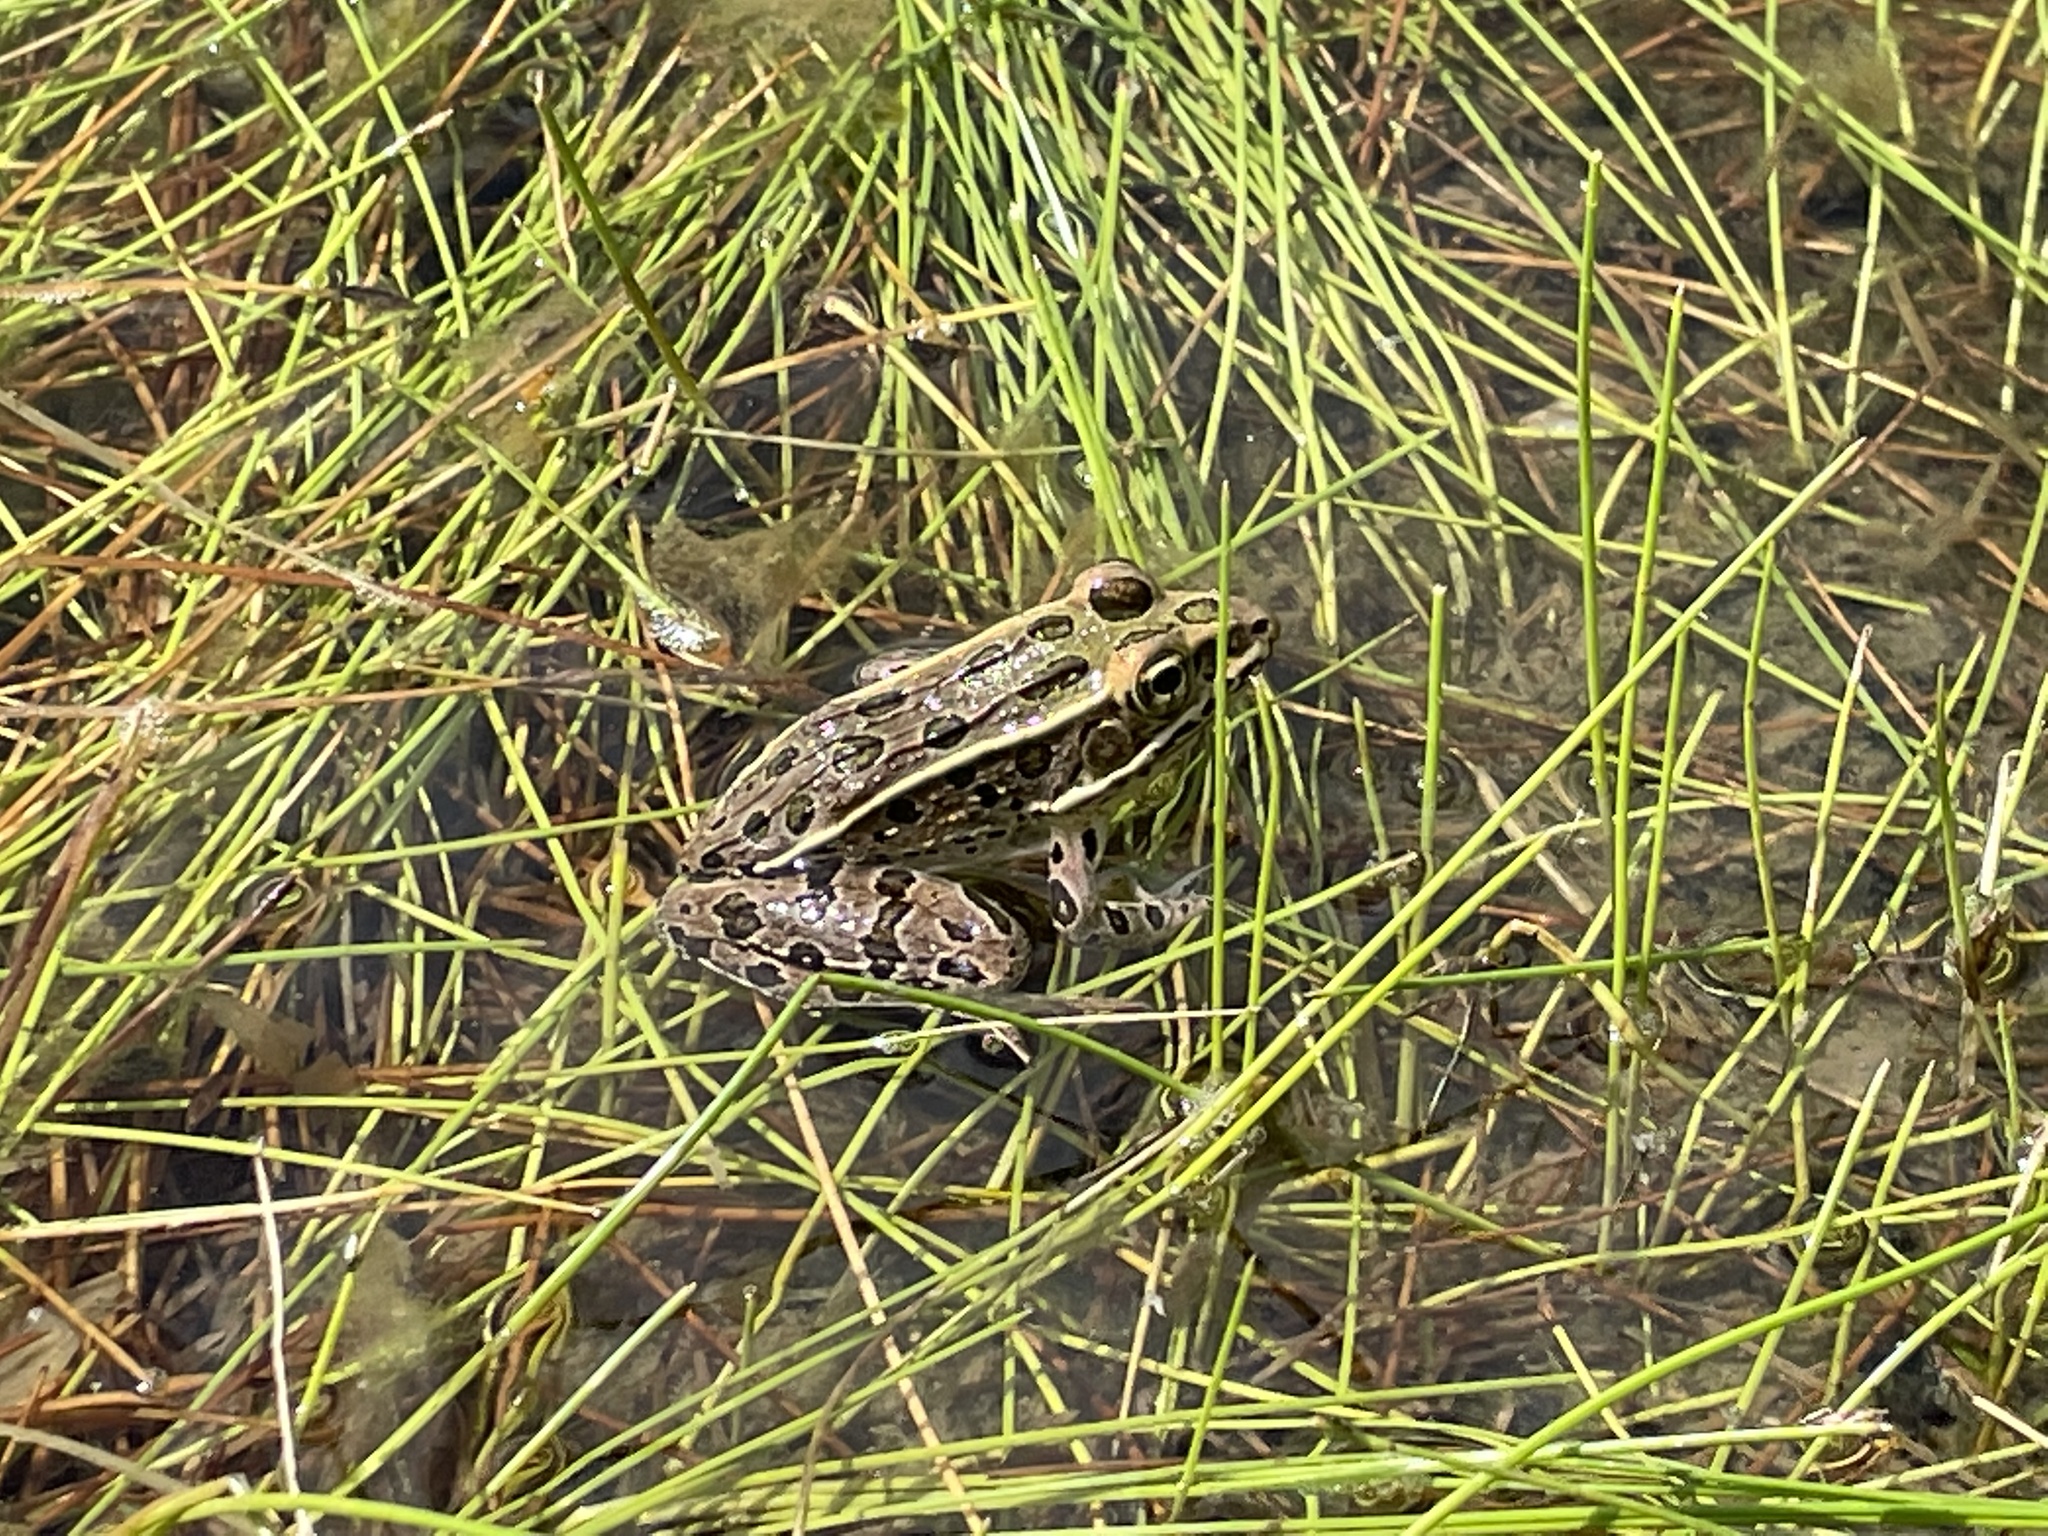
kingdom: Animalia
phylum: Chordata
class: Amphibia
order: Anura
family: Ranidae
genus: Lithobates
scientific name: Lithobates pipiens
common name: Northern leopard frog
